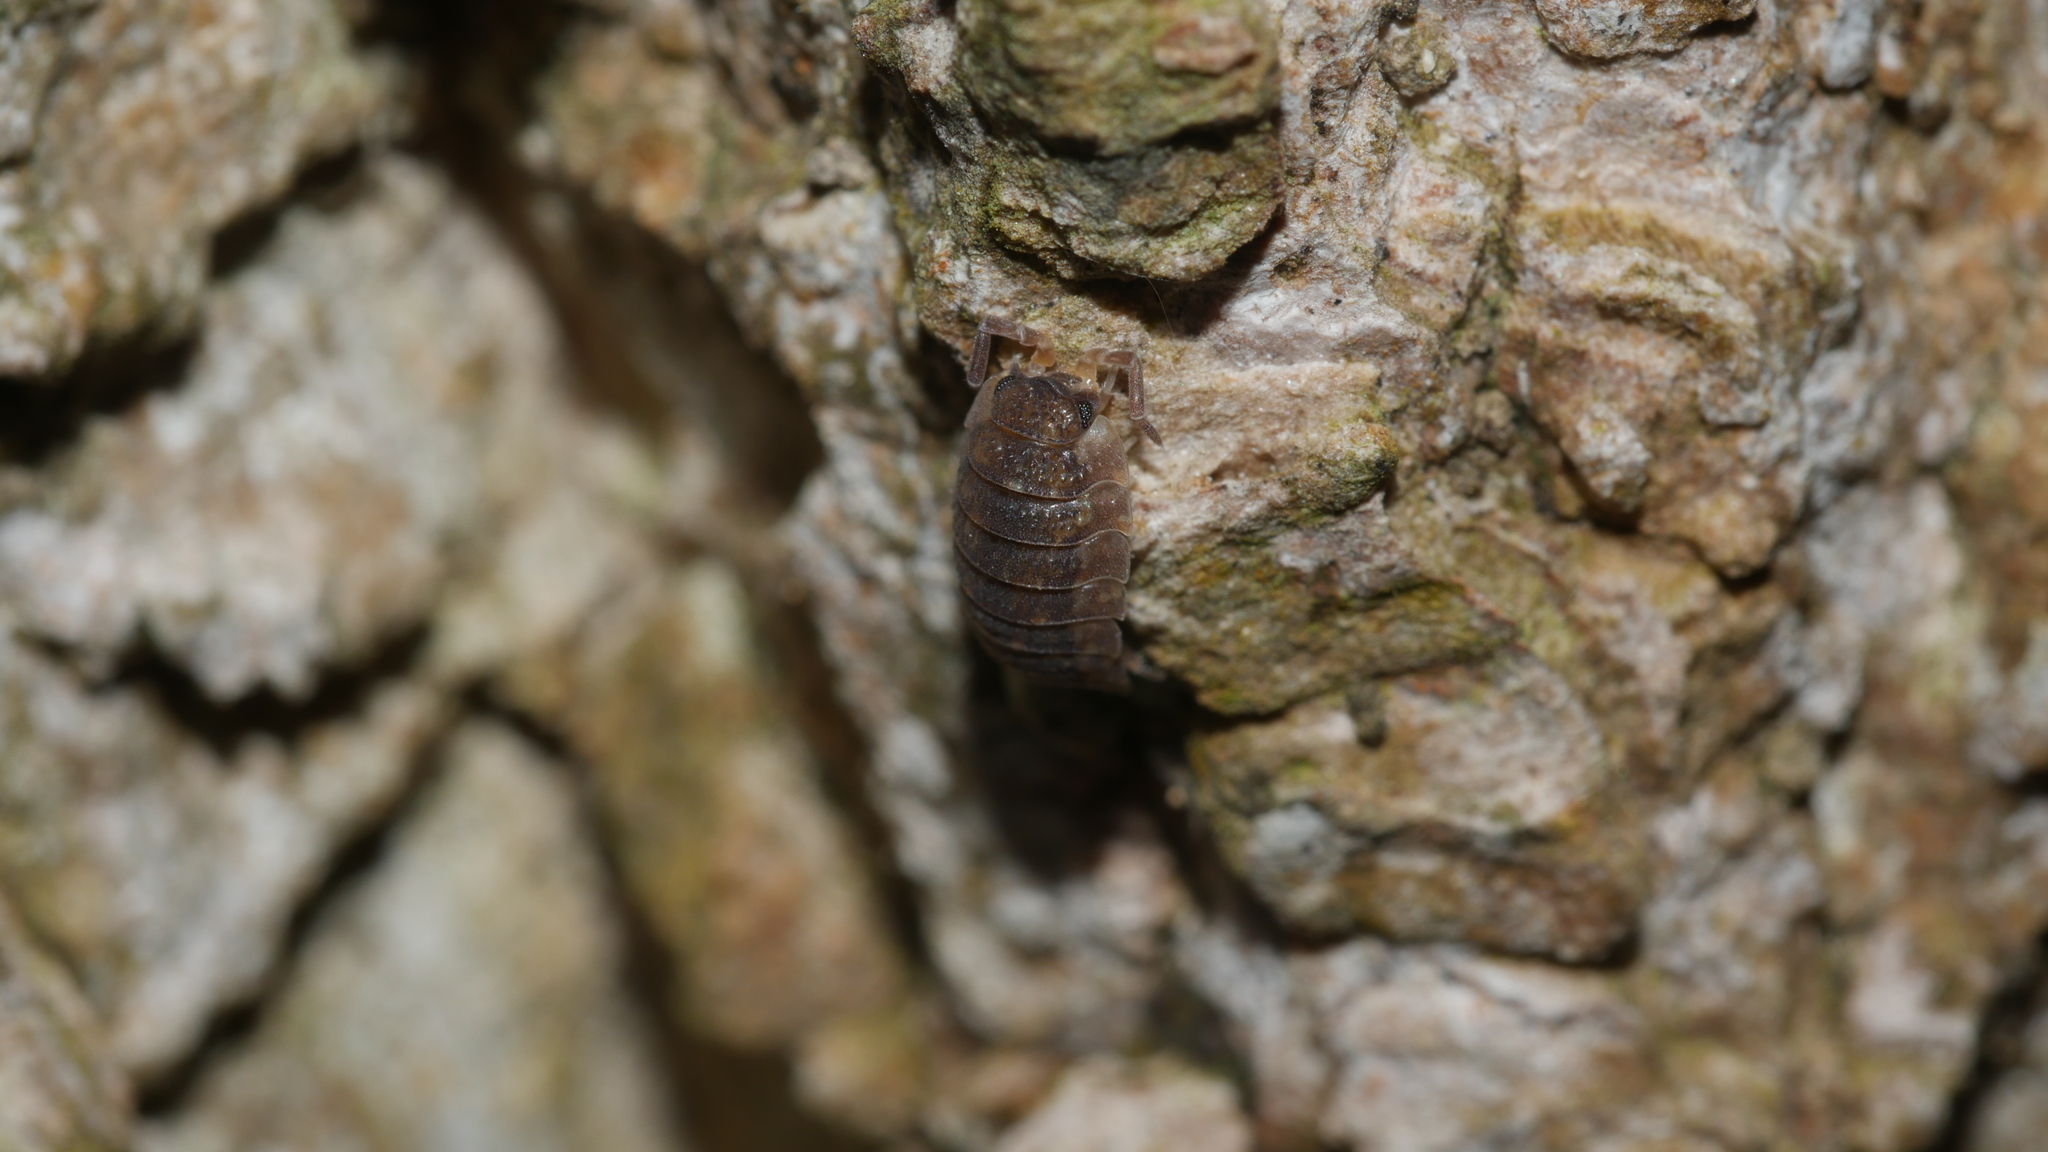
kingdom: Animalia
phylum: Arthropoda
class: Malacostraca
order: Isopoda
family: Porcellionidae
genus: Porcellio
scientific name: Porcellio scaber
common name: Common rough woodlouse
